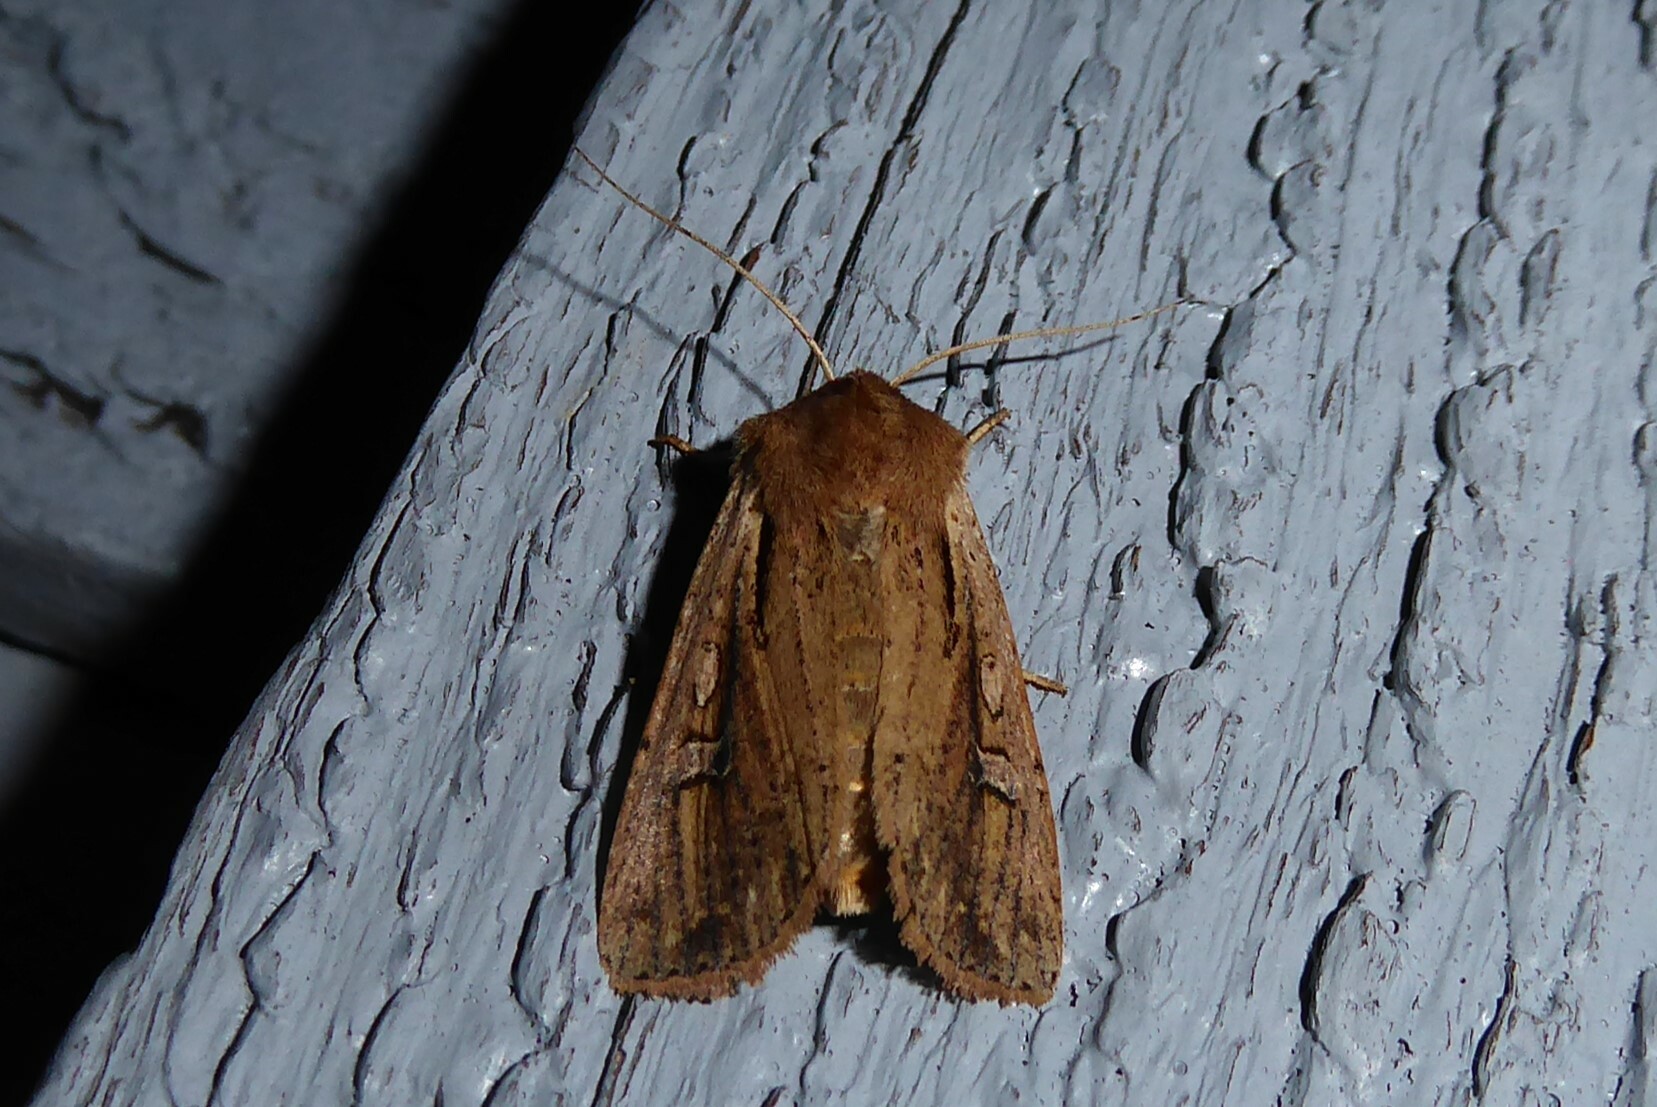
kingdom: Animalia
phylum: Arthropoda
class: Insecta
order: Lepidoptera
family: Noctuidae
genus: Ichneutica
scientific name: Ichneutica atristriga
